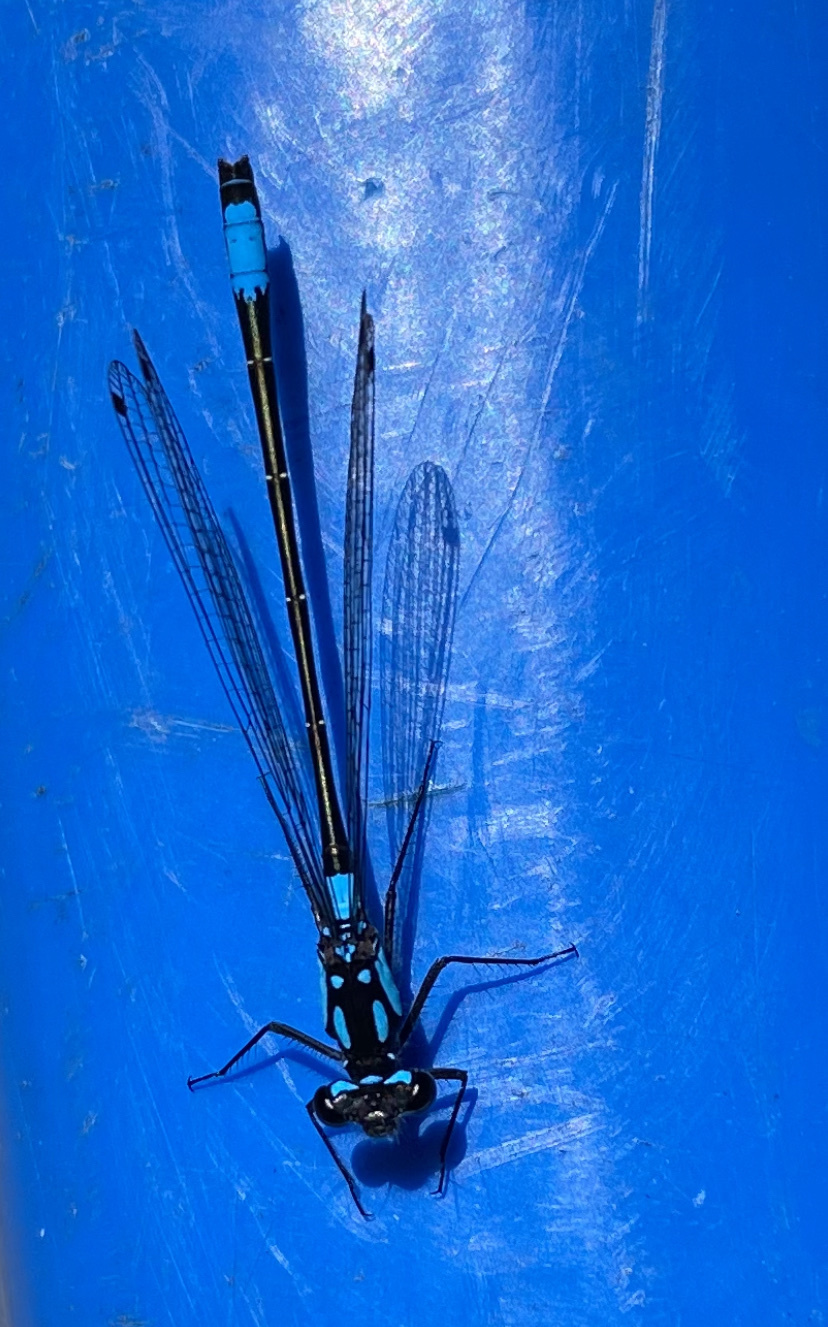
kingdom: Animalia
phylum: Arthropoda
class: Insecta
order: Odonata
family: Coenagrionidae
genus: Zoniagrion
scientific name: Zoniagrion exclamationis
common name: Exclamation damsel
